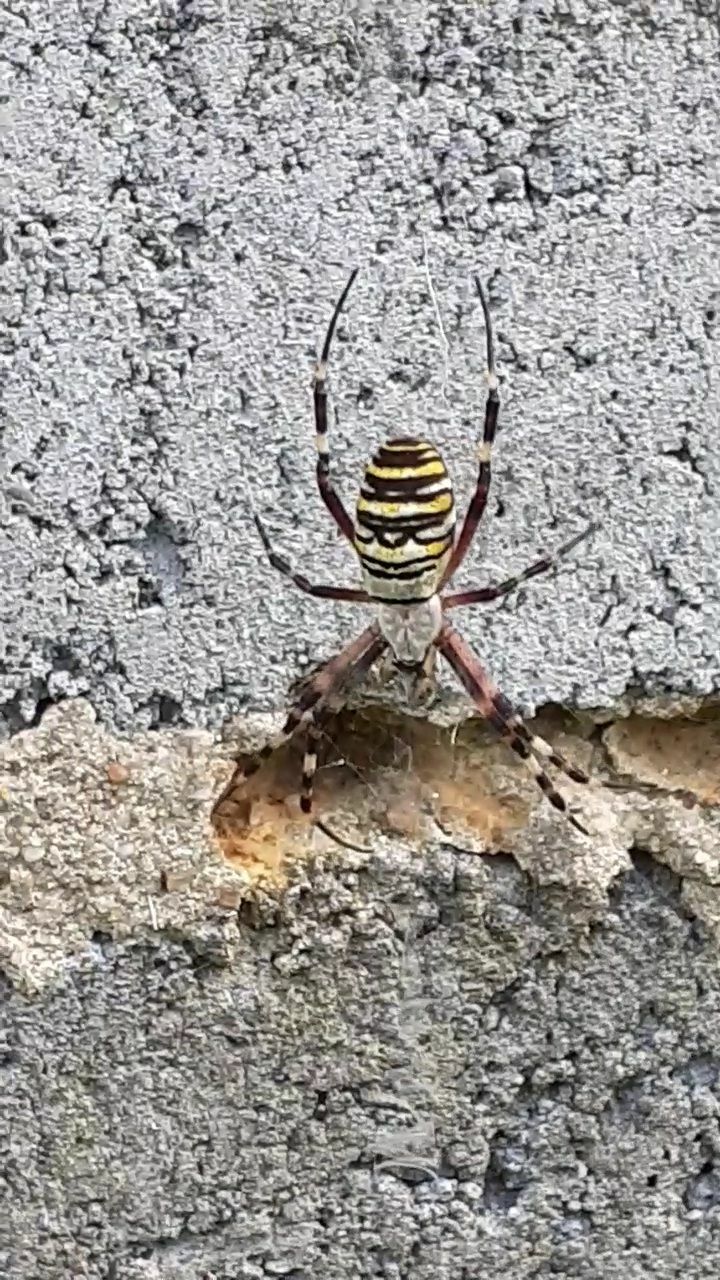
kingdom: Animalia
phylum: Arthropoda
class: Arachnida
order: Araneae
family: Araneidae
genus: Argiope
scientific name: Argiope bruennichi
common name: Wasp spider
